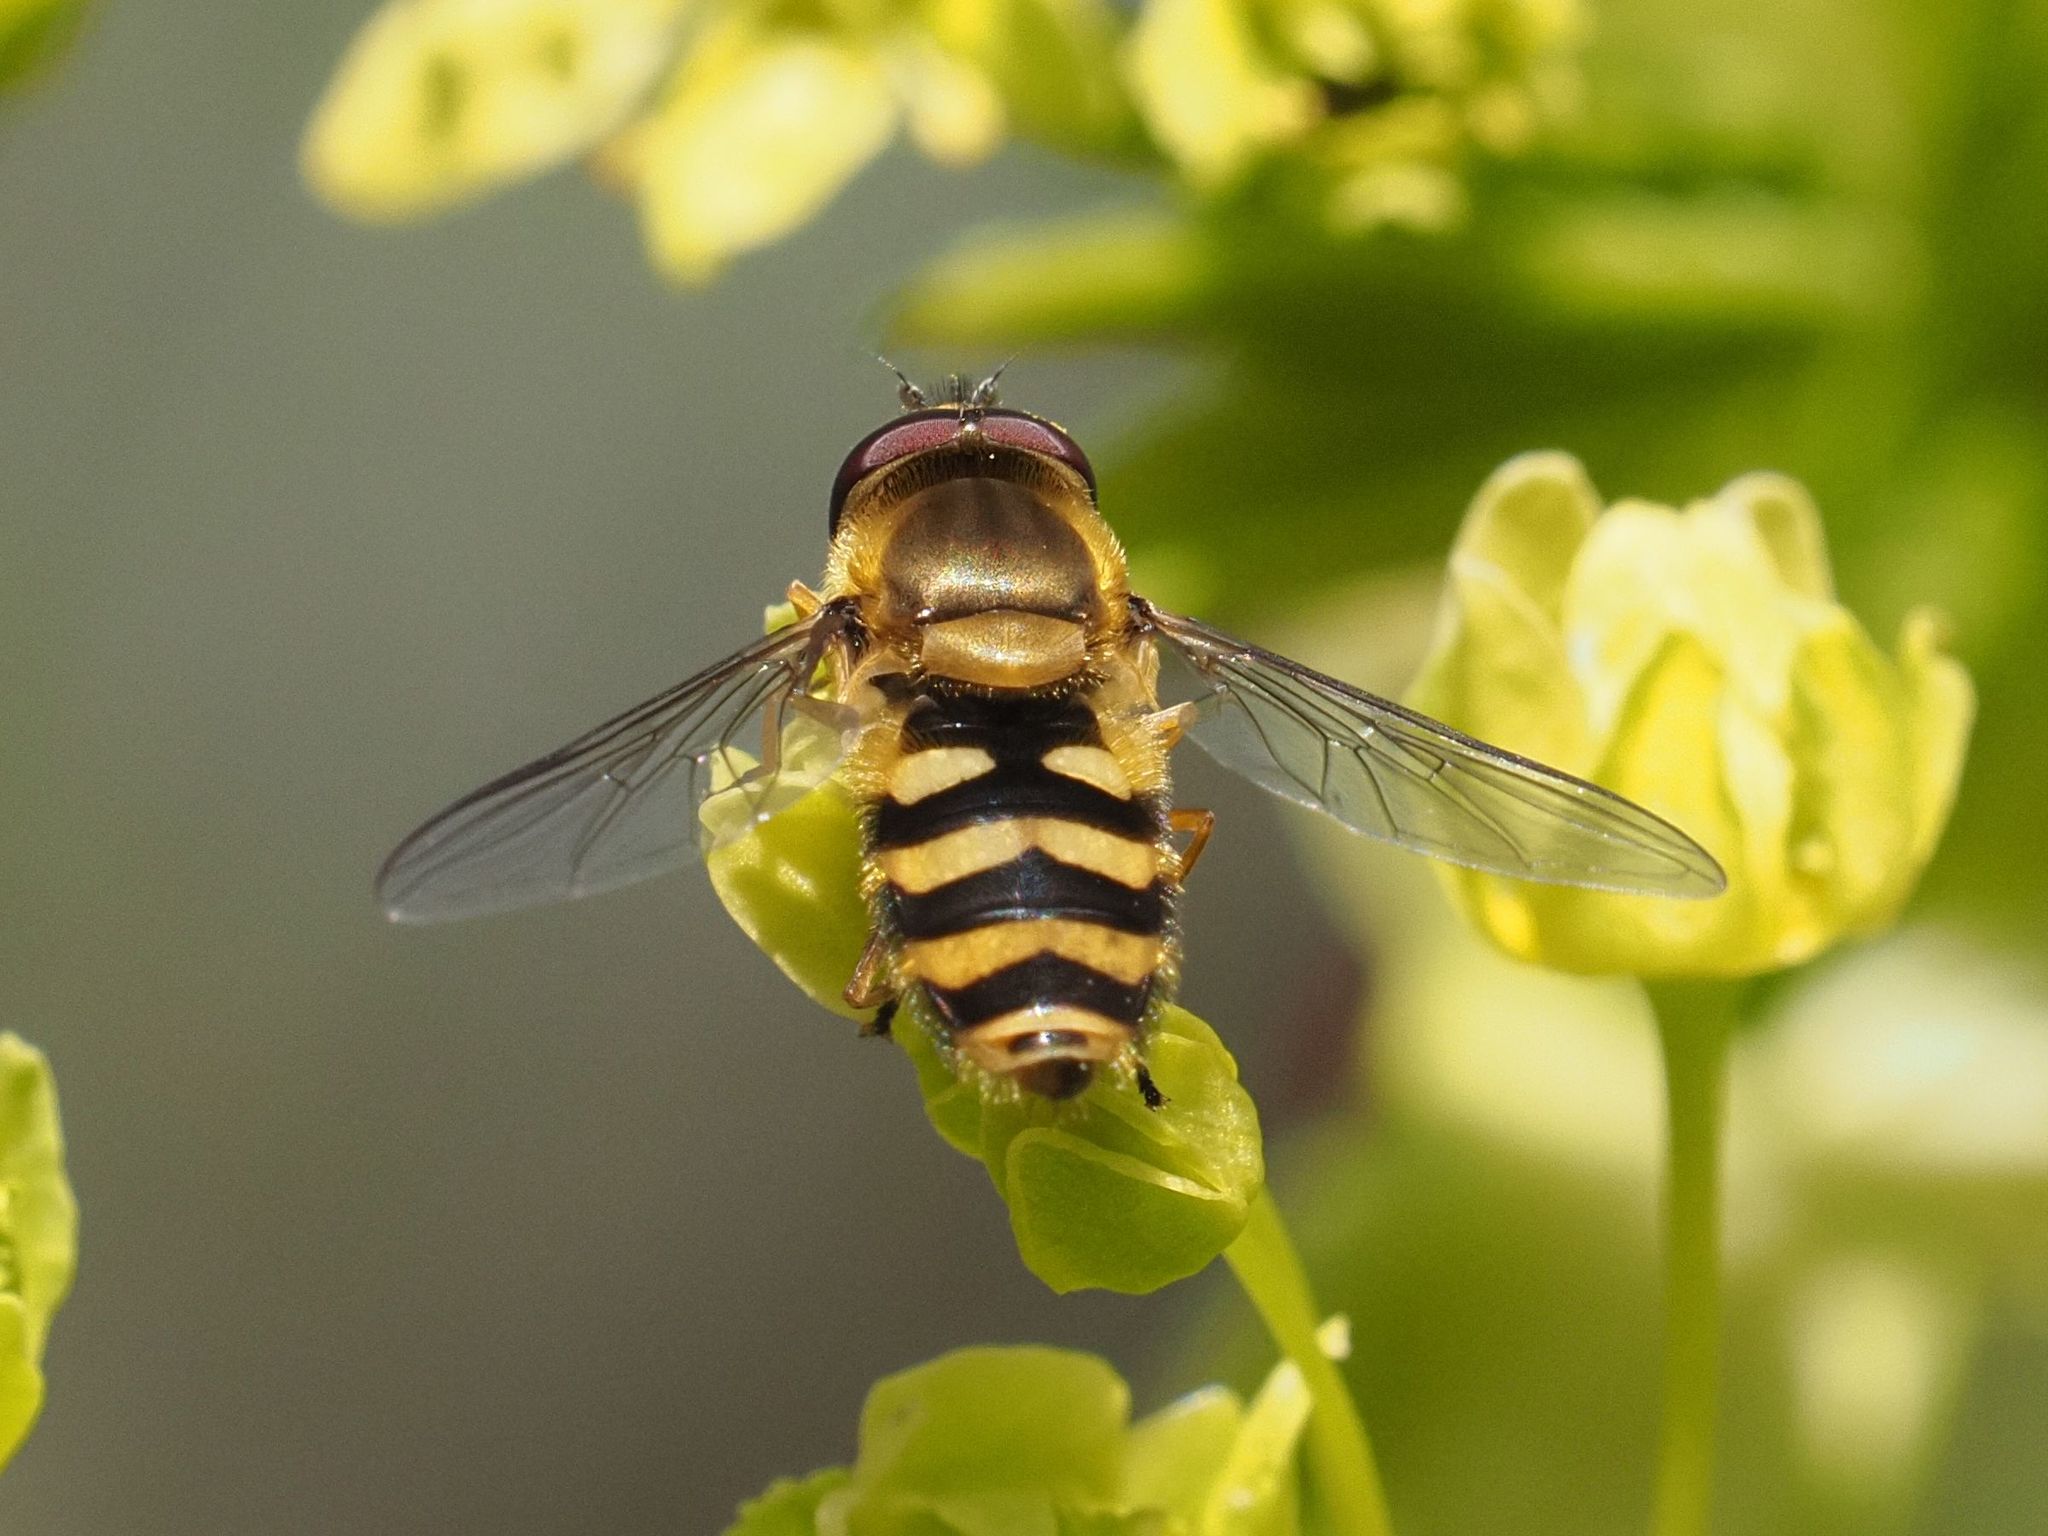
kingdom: Animalia
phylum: Arthropoda
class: Insecta
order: Diptera
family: Syrphidae
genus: Syrphus
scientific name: Syrphus
